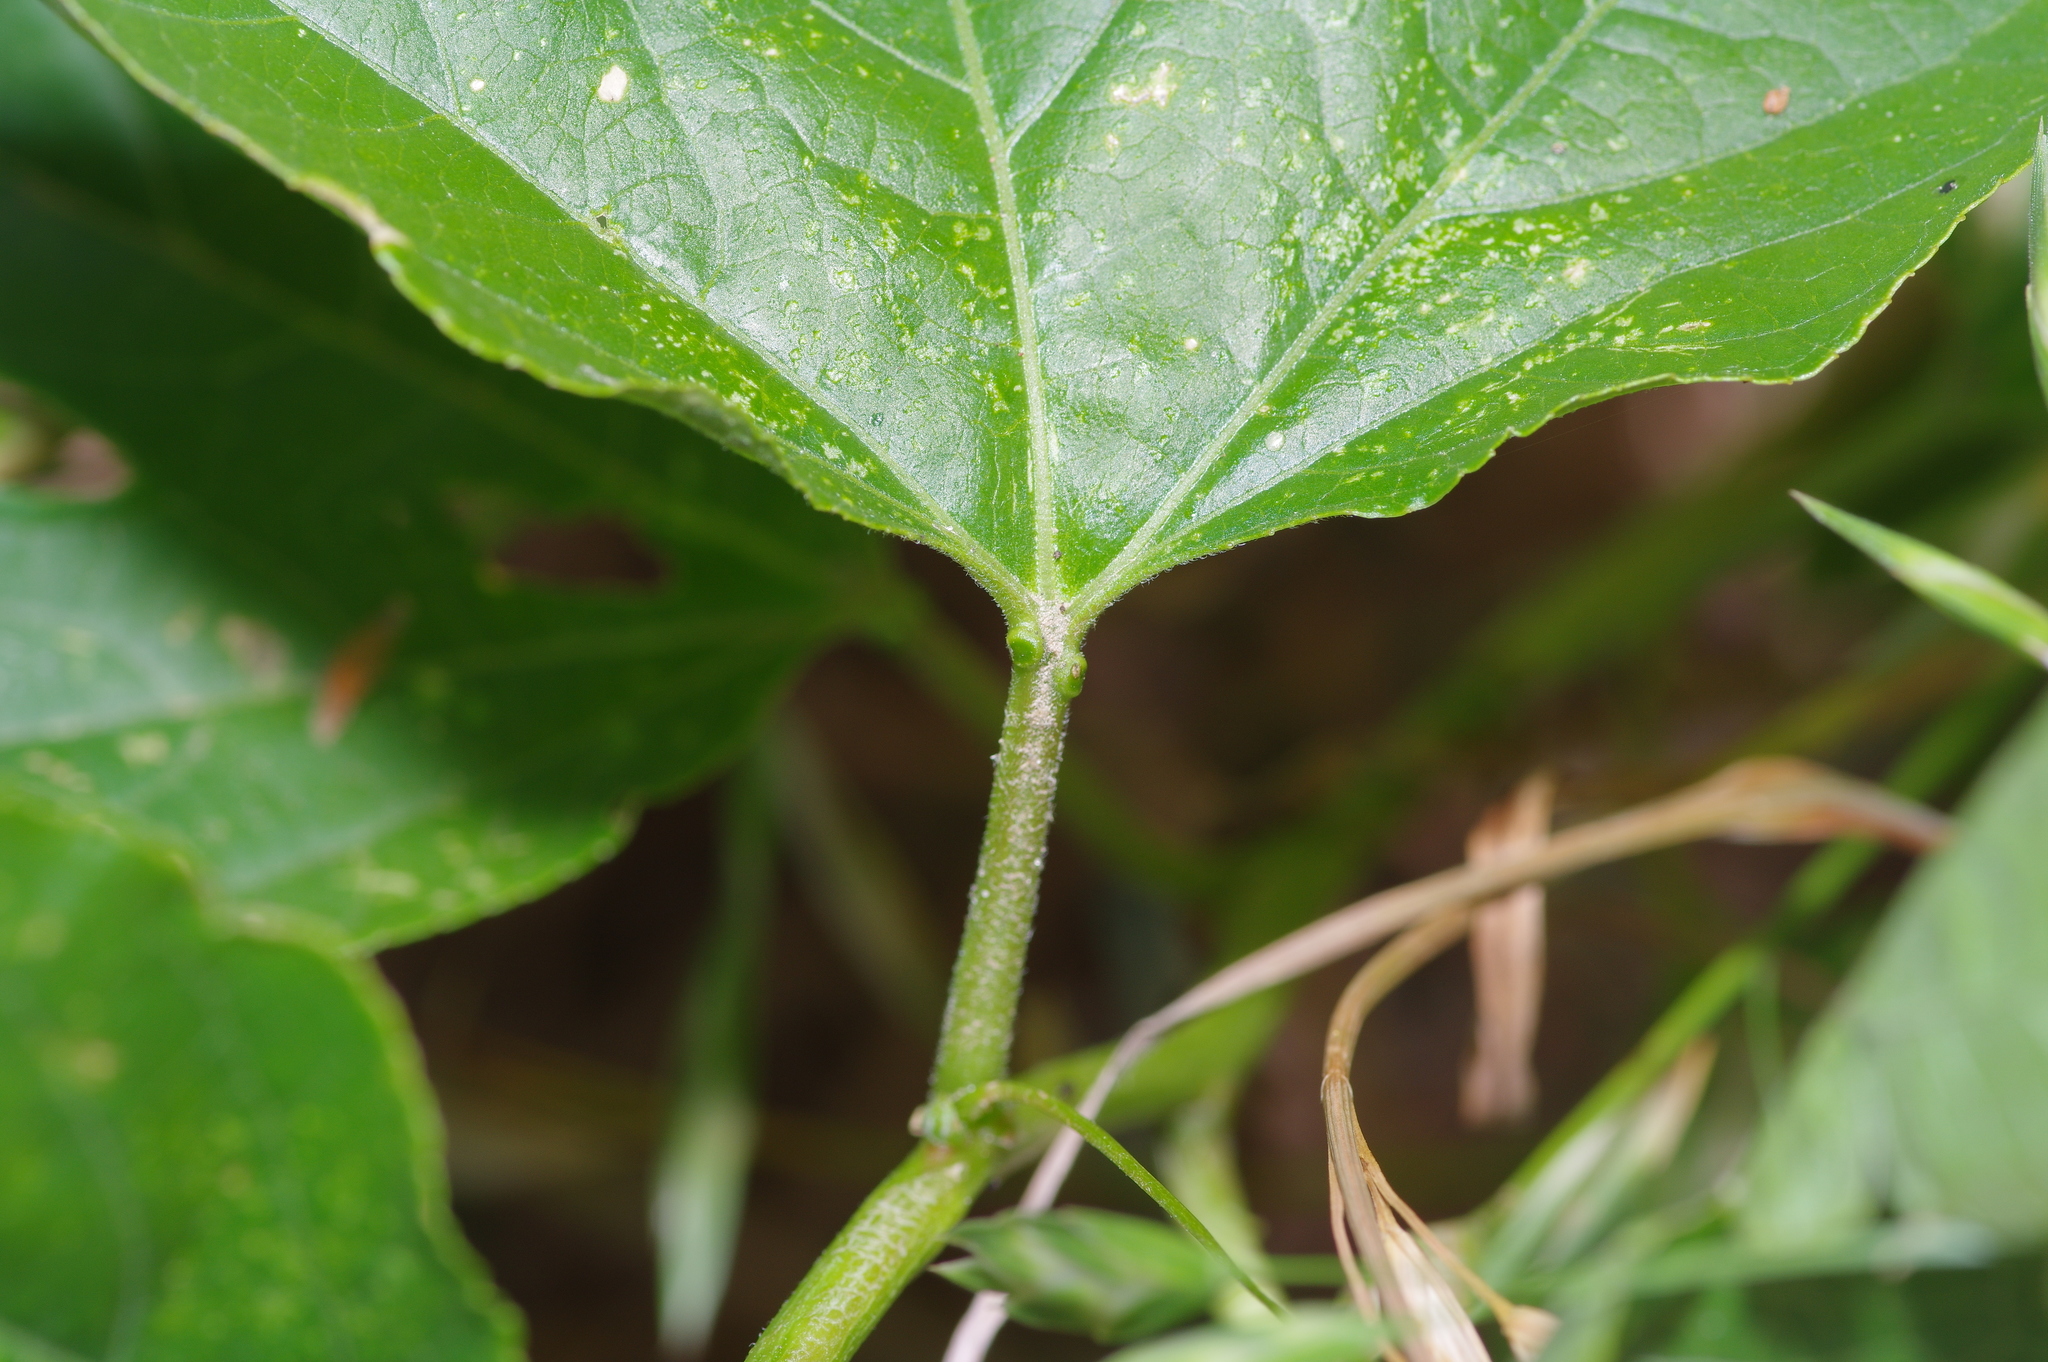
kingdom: Plantae
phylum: Tracheophyta
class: Magnoliopsida
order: Malpighiales
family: Passifloraceae
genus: Passiflora
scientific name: Passiflora incarnata
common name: Apricot-vine
